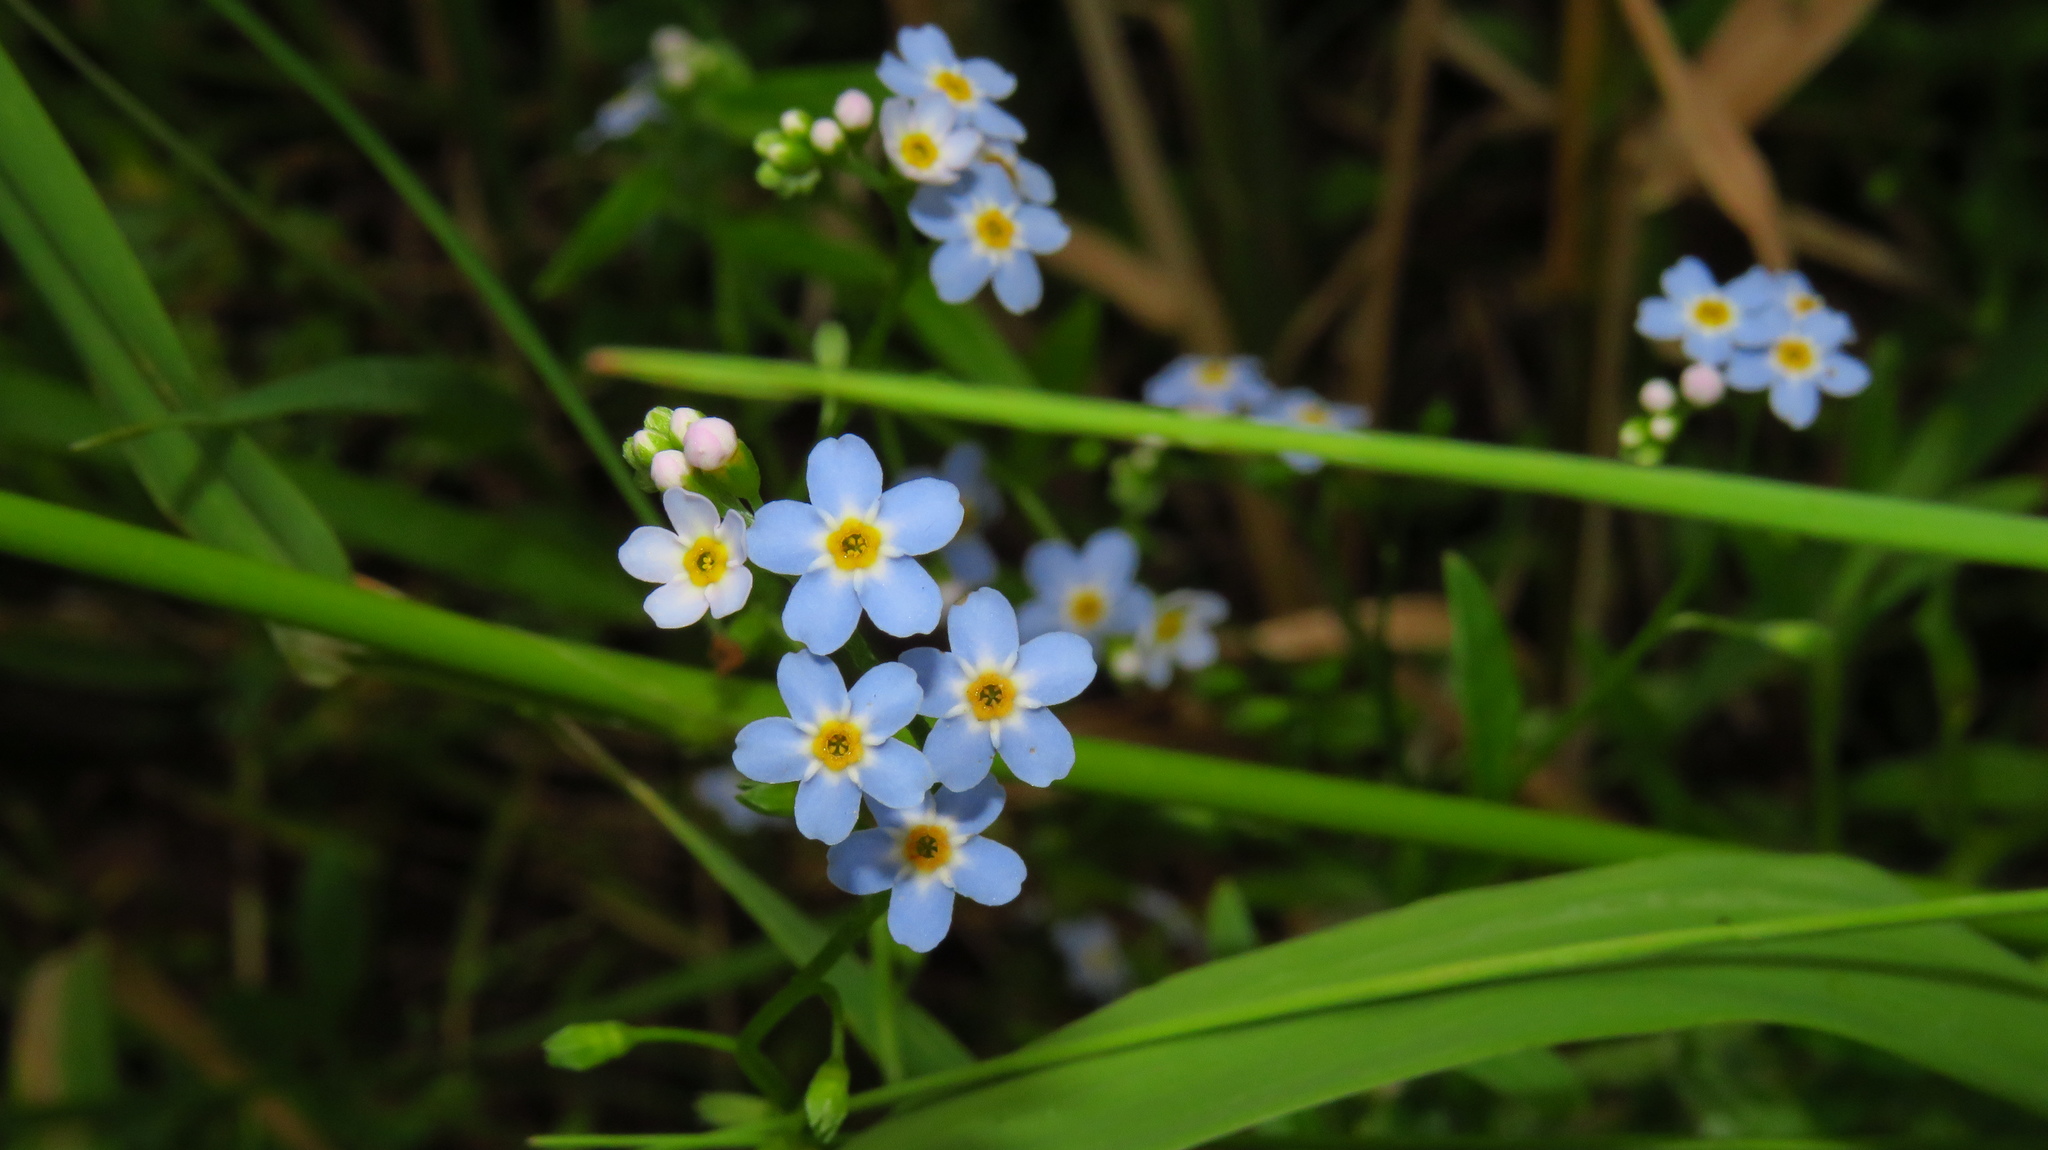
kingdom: Plantae
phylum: Tracheophyta
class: Magnoliopsida
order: Boraginales
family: Boraginaceae
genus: Myosotis
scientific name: Myosotis scorpioides
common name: Water forget-me-not
